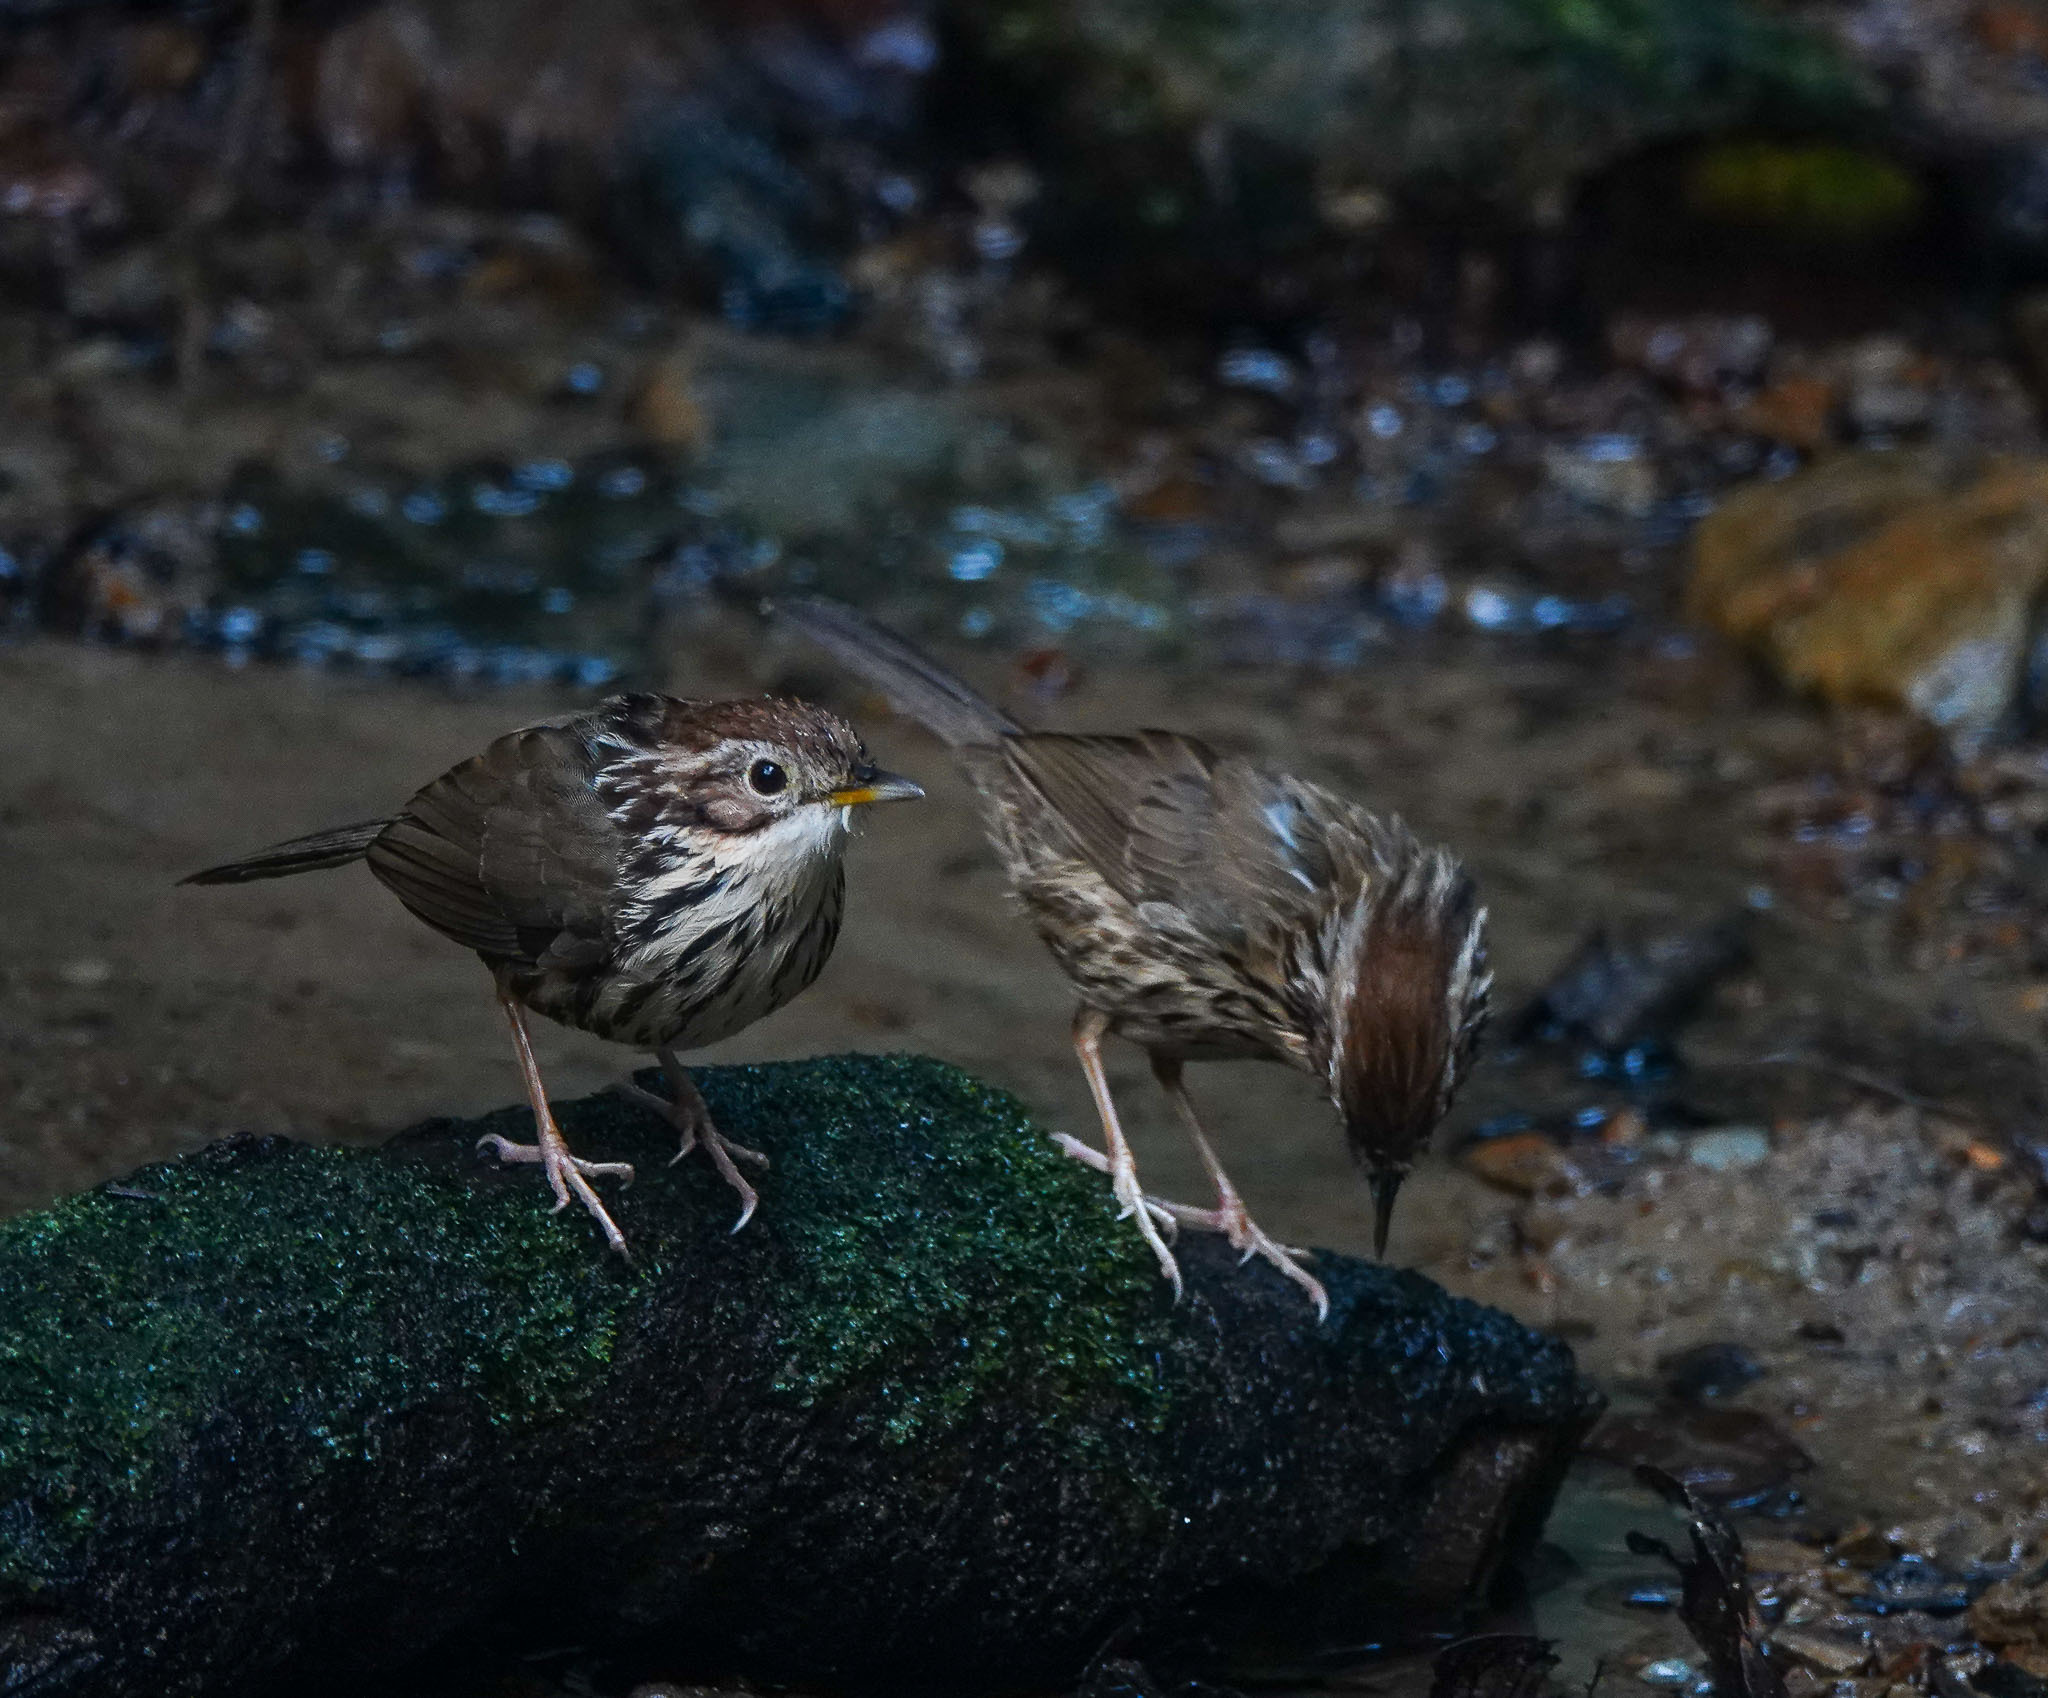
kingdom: Animalia
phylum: Chordata
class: Aves
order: Passeriformes
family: Pellorneidae
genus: Pellorneum
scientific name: Pellorneum ruficeps
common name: Puff-throated babbler
